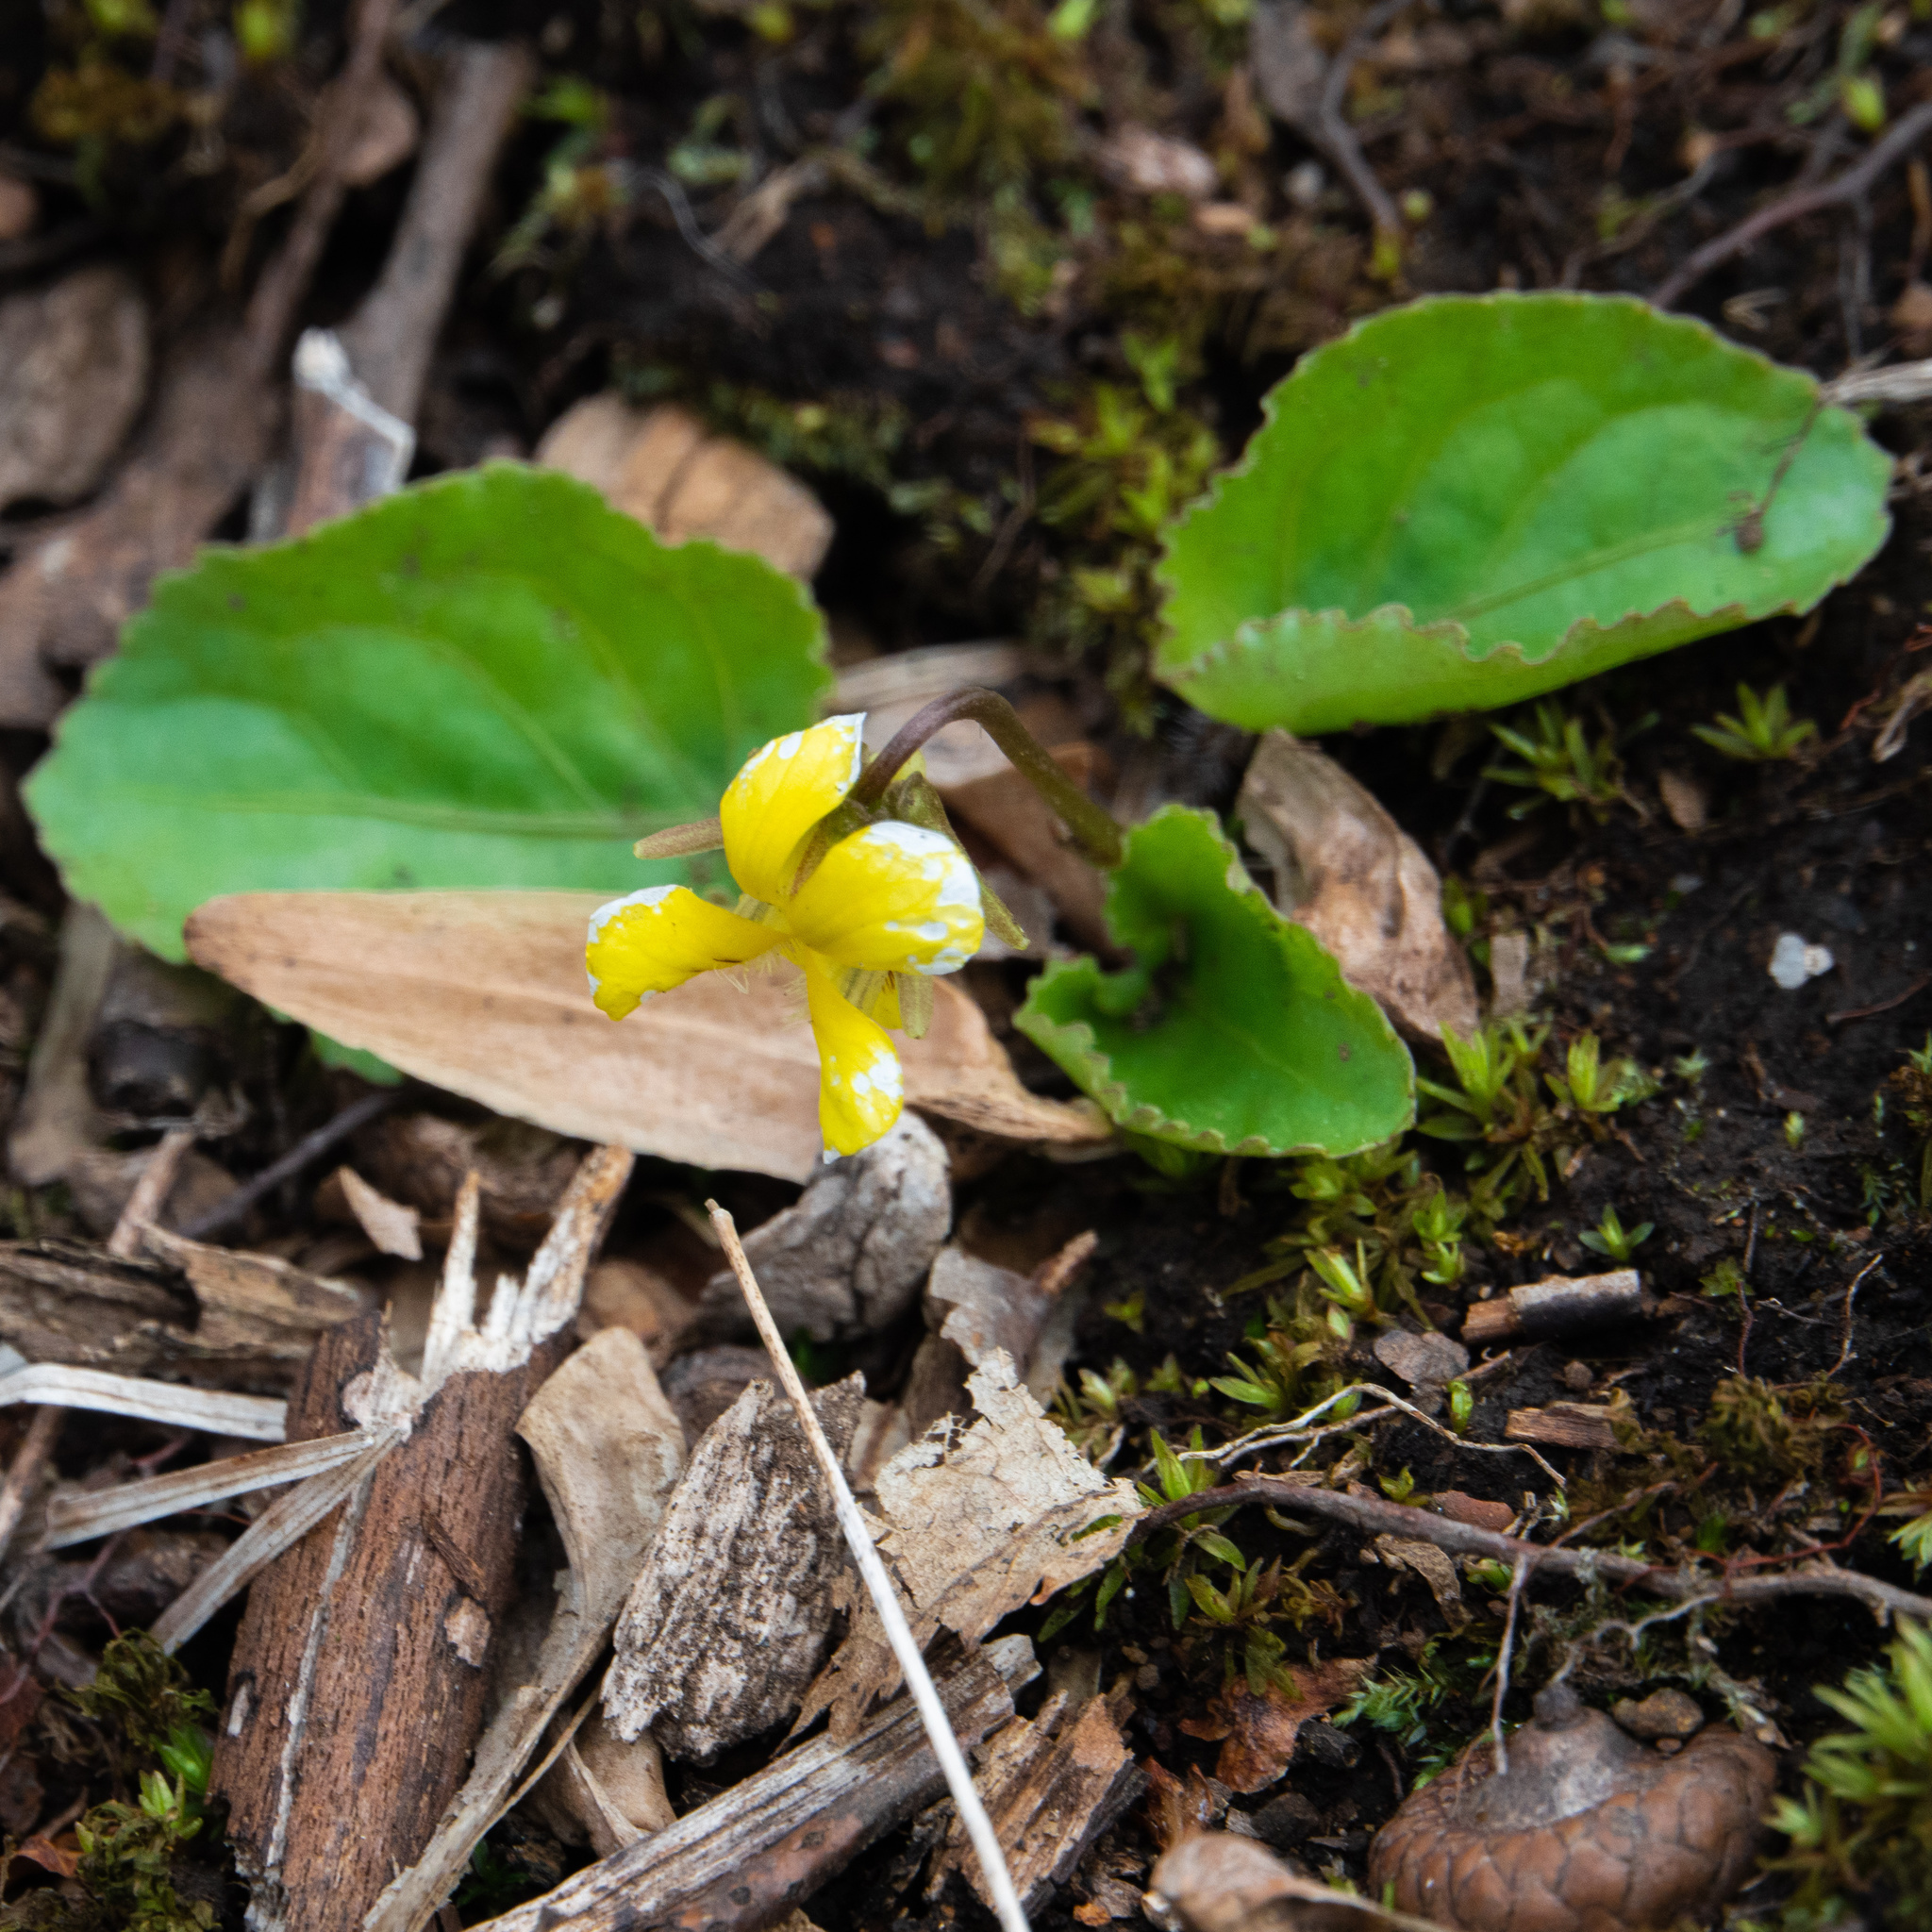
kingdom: Plantae
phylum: Tracheophyta
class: Magnoliopsida
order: Malpighiales
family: Violaceae
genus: Viola
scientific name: Viola rotundifolia
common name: Early yellow violet
